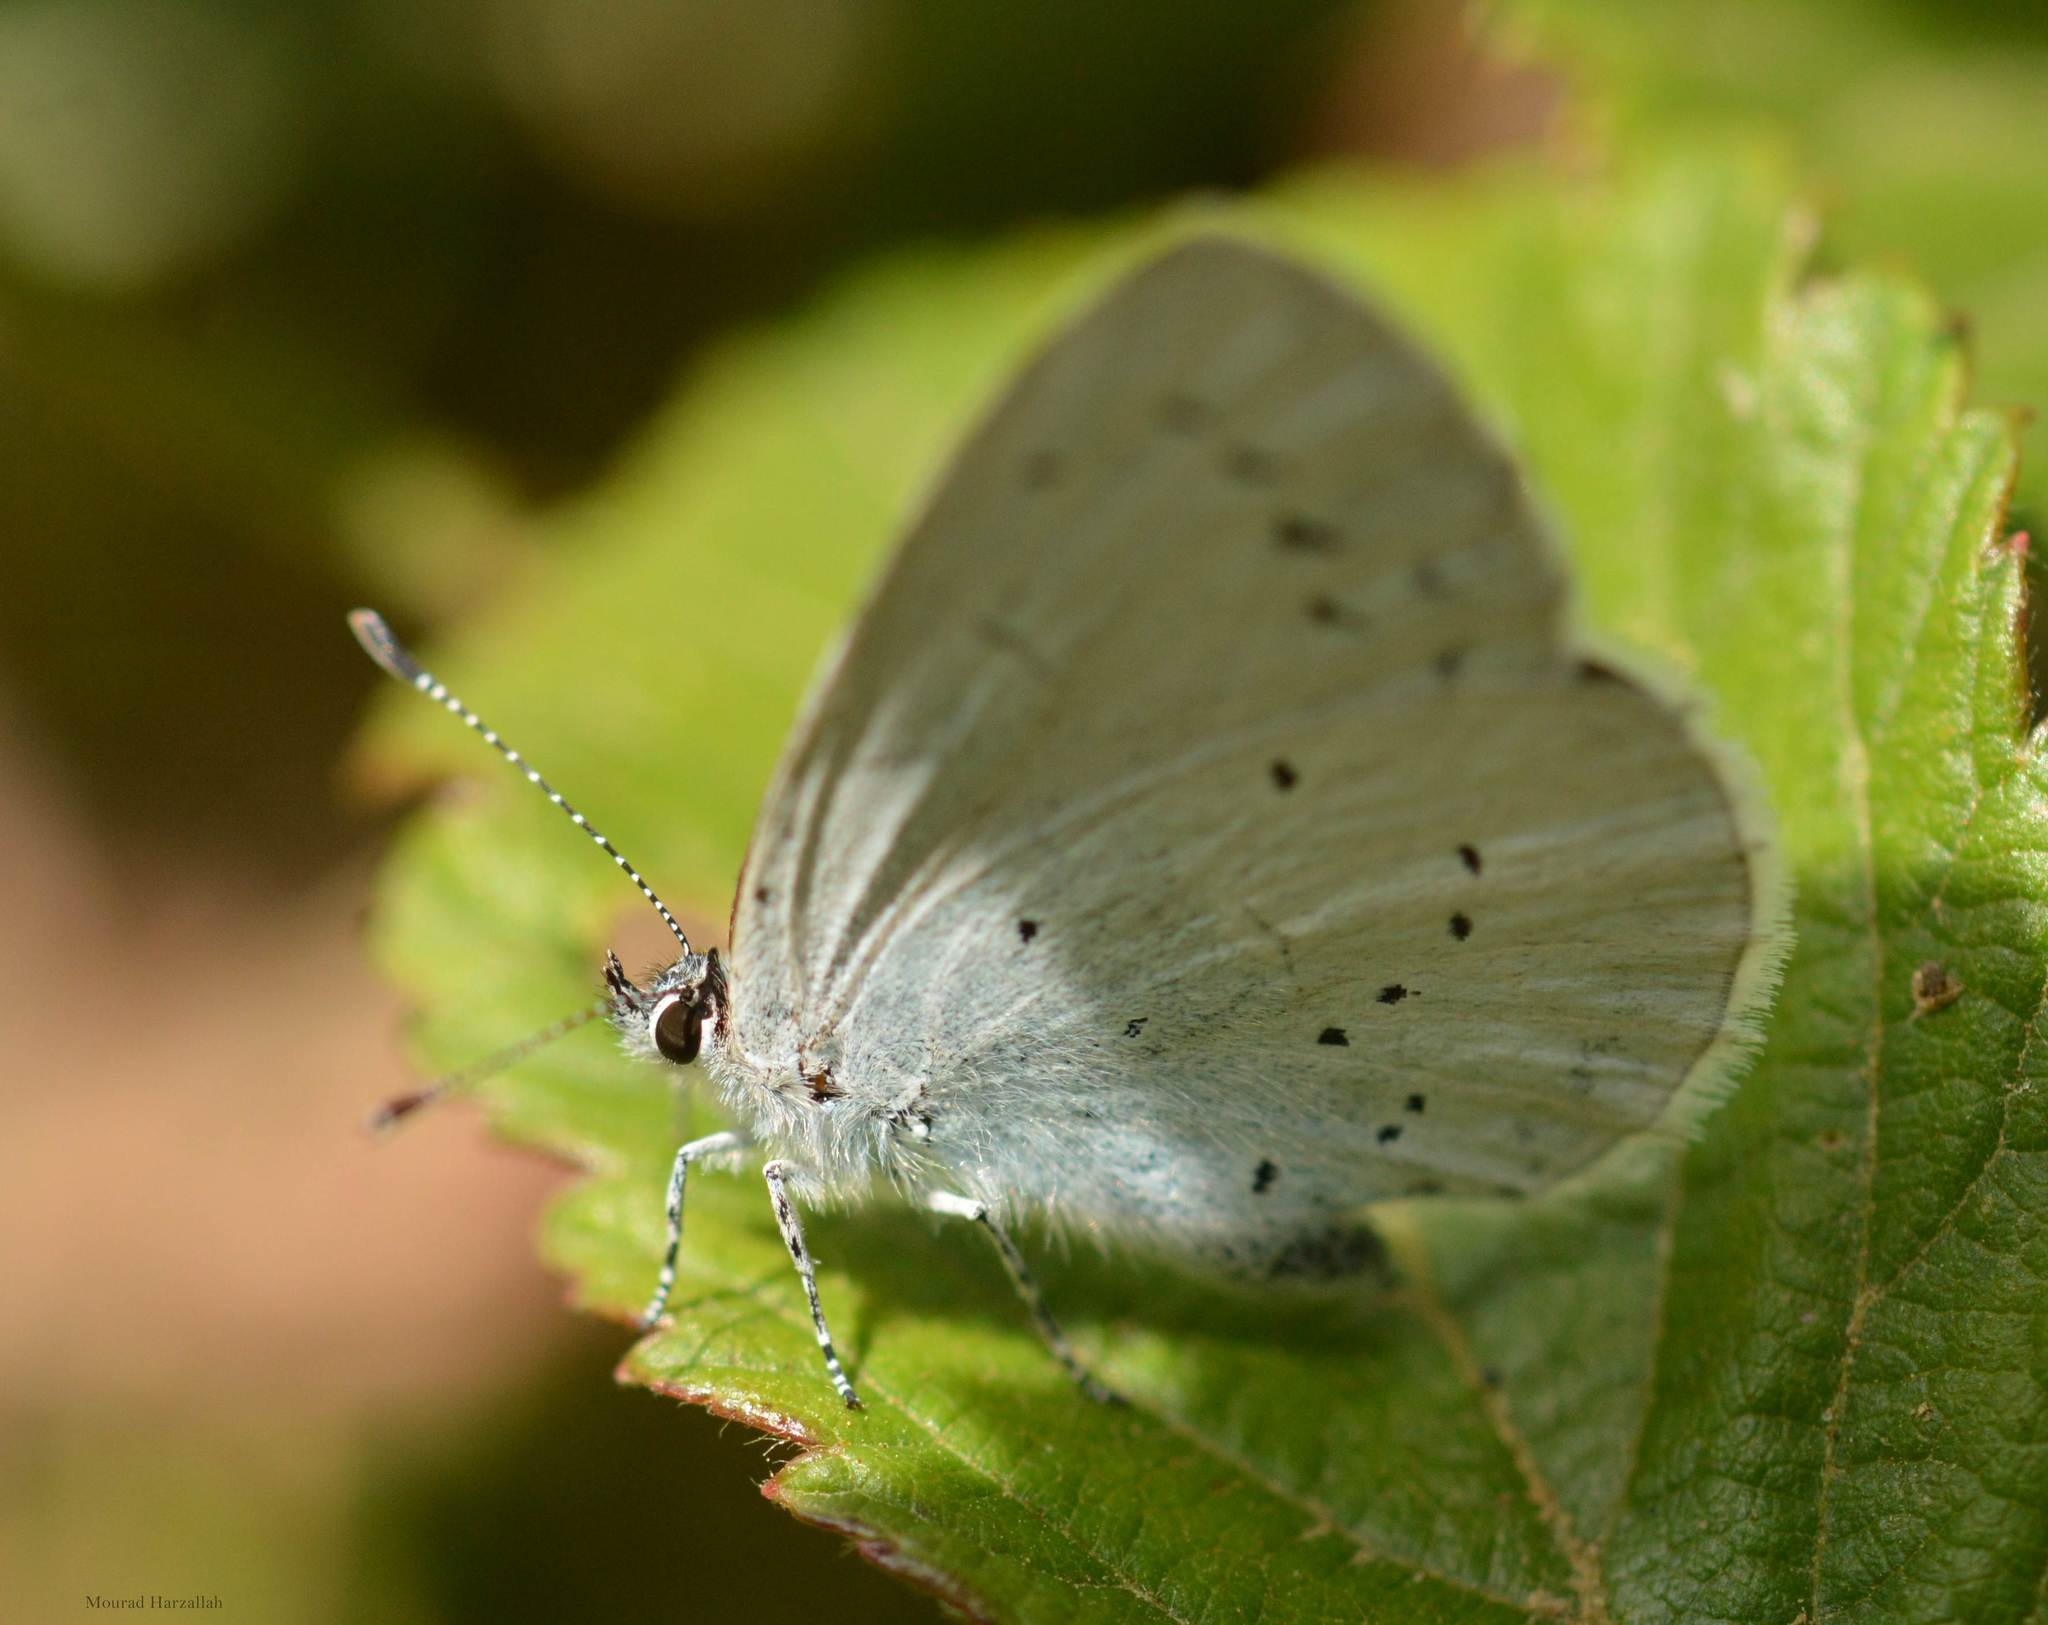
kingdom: Animalia
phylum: Arthropoda
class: Insecta
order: Lepidoptera
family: Lycaenidae
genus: Celastrina
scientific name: Celastrina argiolus
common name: Holly blue
